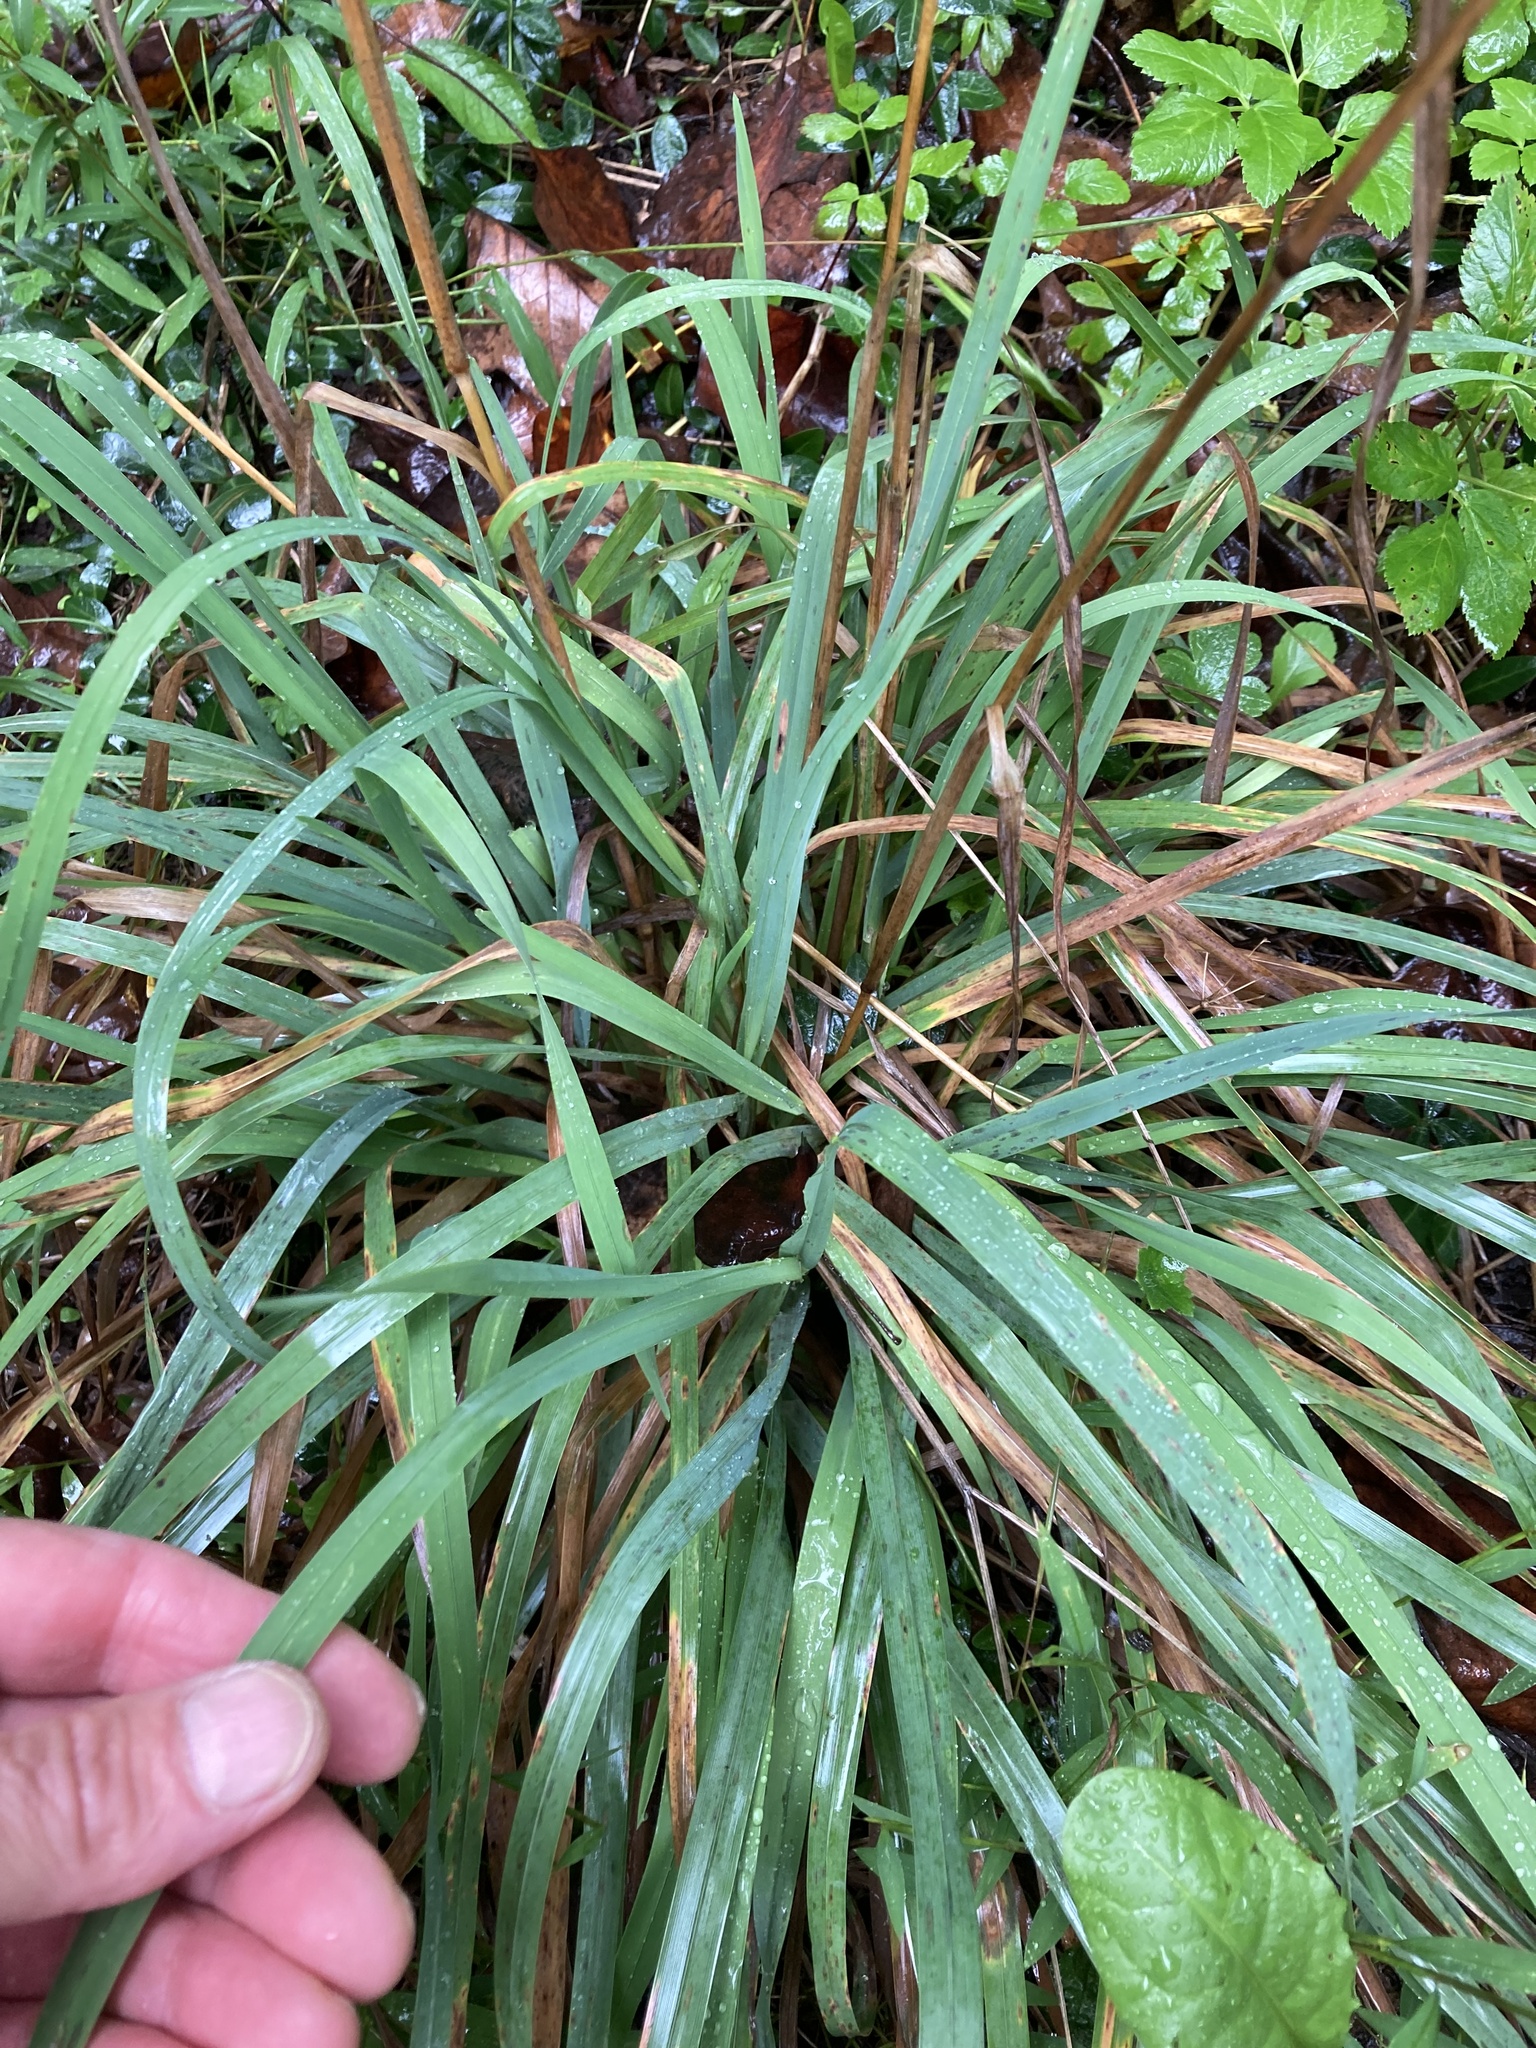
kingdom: Plantae
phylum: Tracheophyta
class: Liliopsida
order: Poales
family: Poaceae
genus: Dactylis
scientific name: Dactylis glomerata
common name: Orchardgrass
